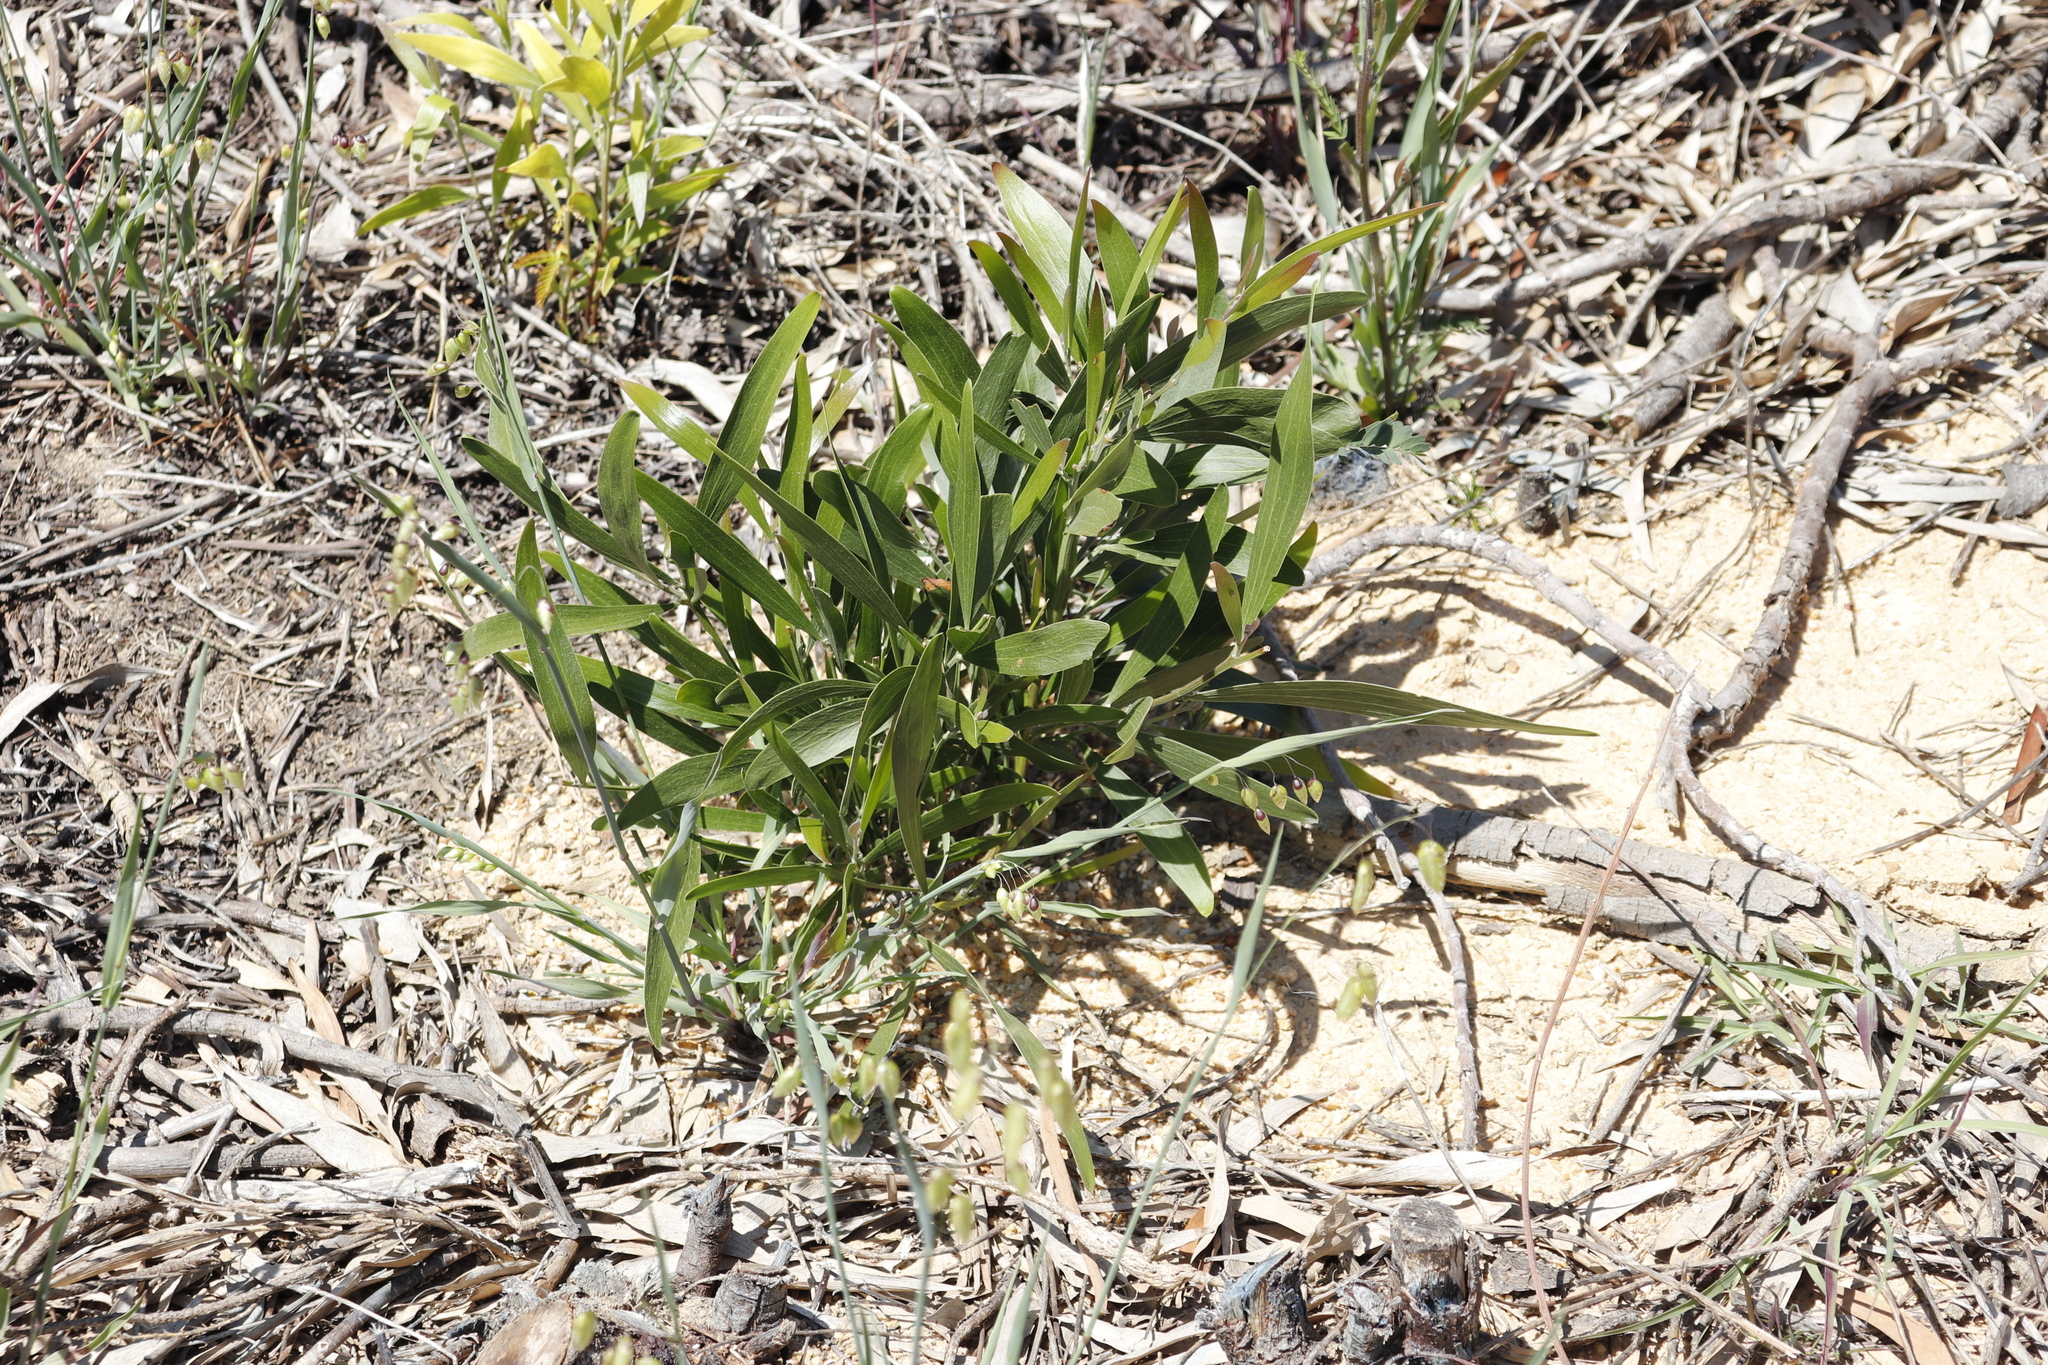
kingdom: Plantae
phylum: Tracheophyta
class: Magnoliopsida
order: Fabales
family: Fabaceae
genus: Acacia
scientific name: Acacia melanoxylon
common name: Blackwood
